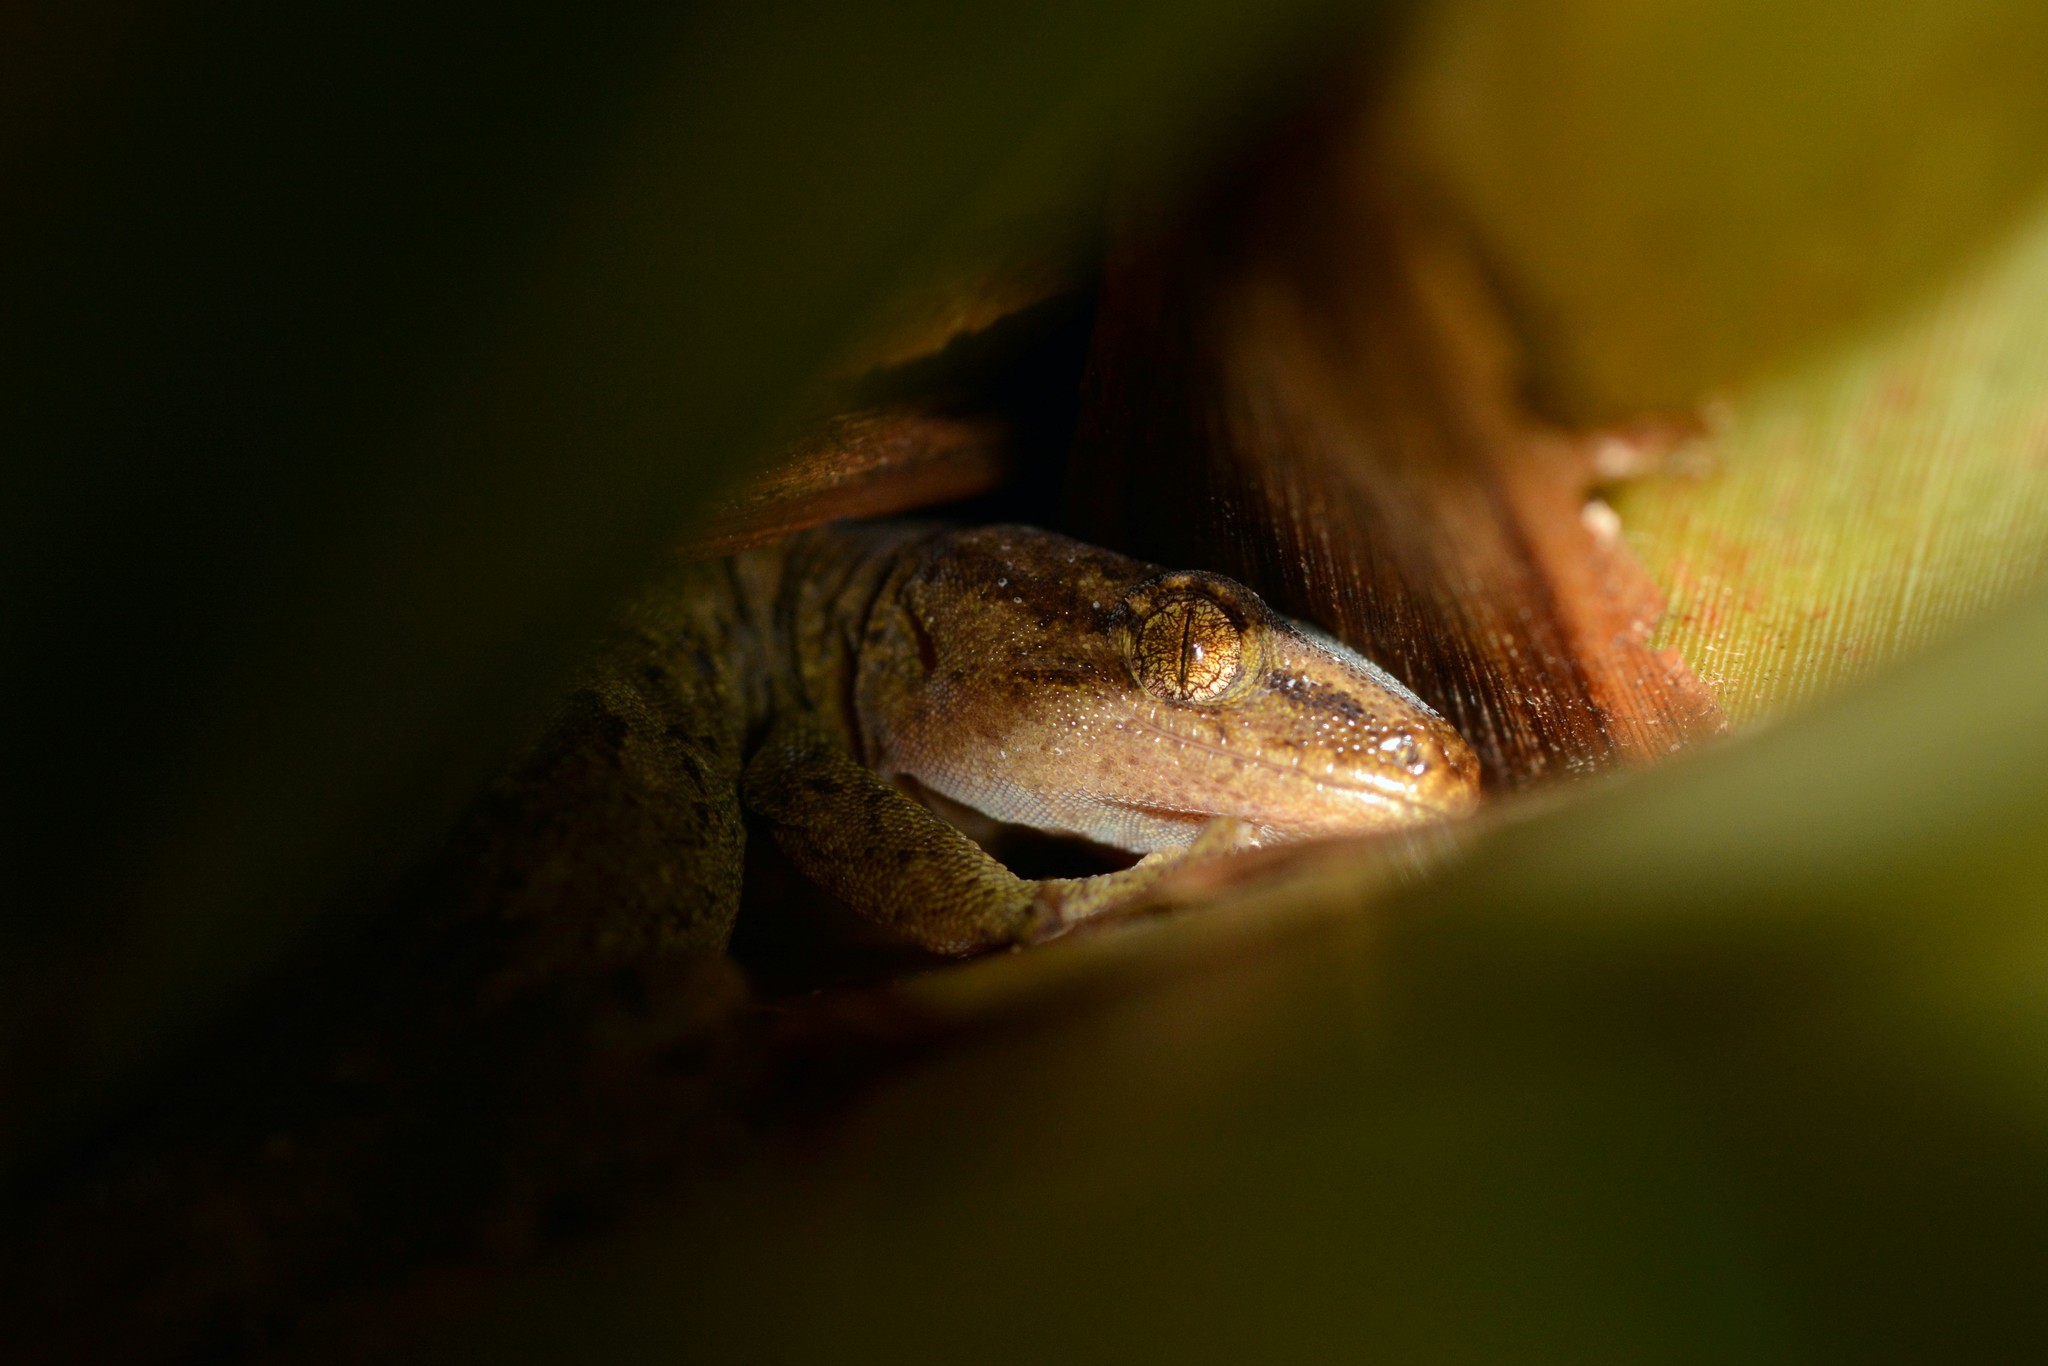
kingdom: Animalia
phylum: Chordata
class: Squamata
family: Diplodactylidae
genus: Woodworthia
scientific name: Woodworthia maculata
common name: Raukawa gecko
